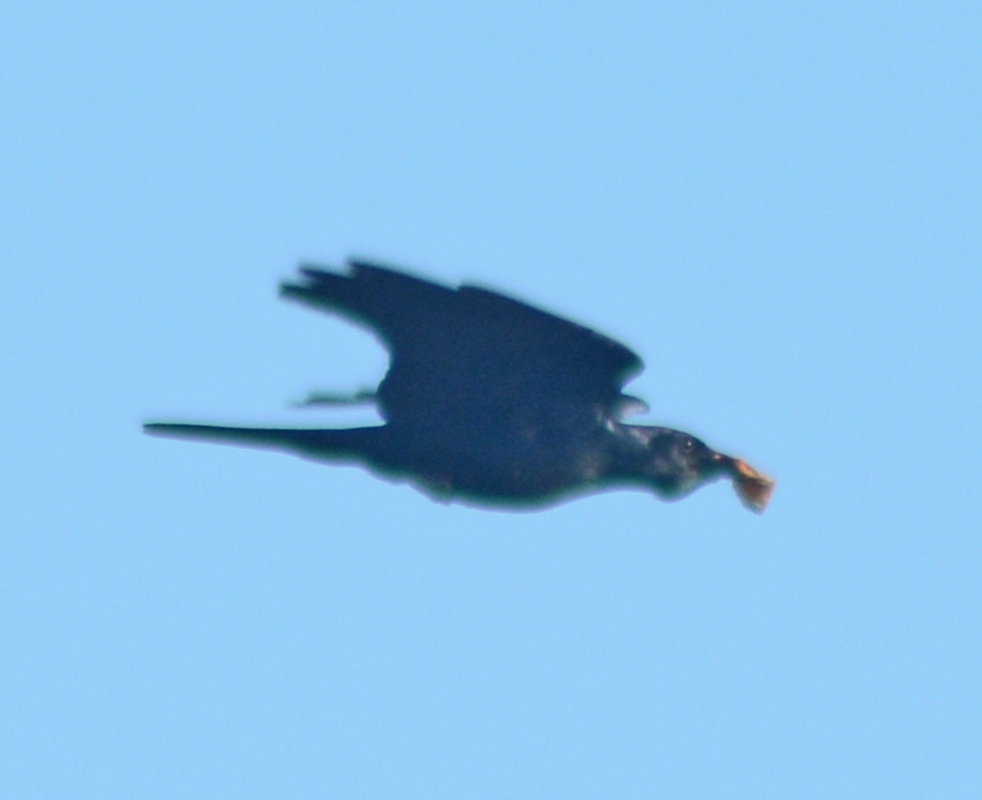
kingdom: Animalia
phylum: Chordata
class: Aves
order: Passeriformes
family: Corvidae
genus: Corvus
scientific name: Corvus sinaloae
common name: Sinaloa crow
